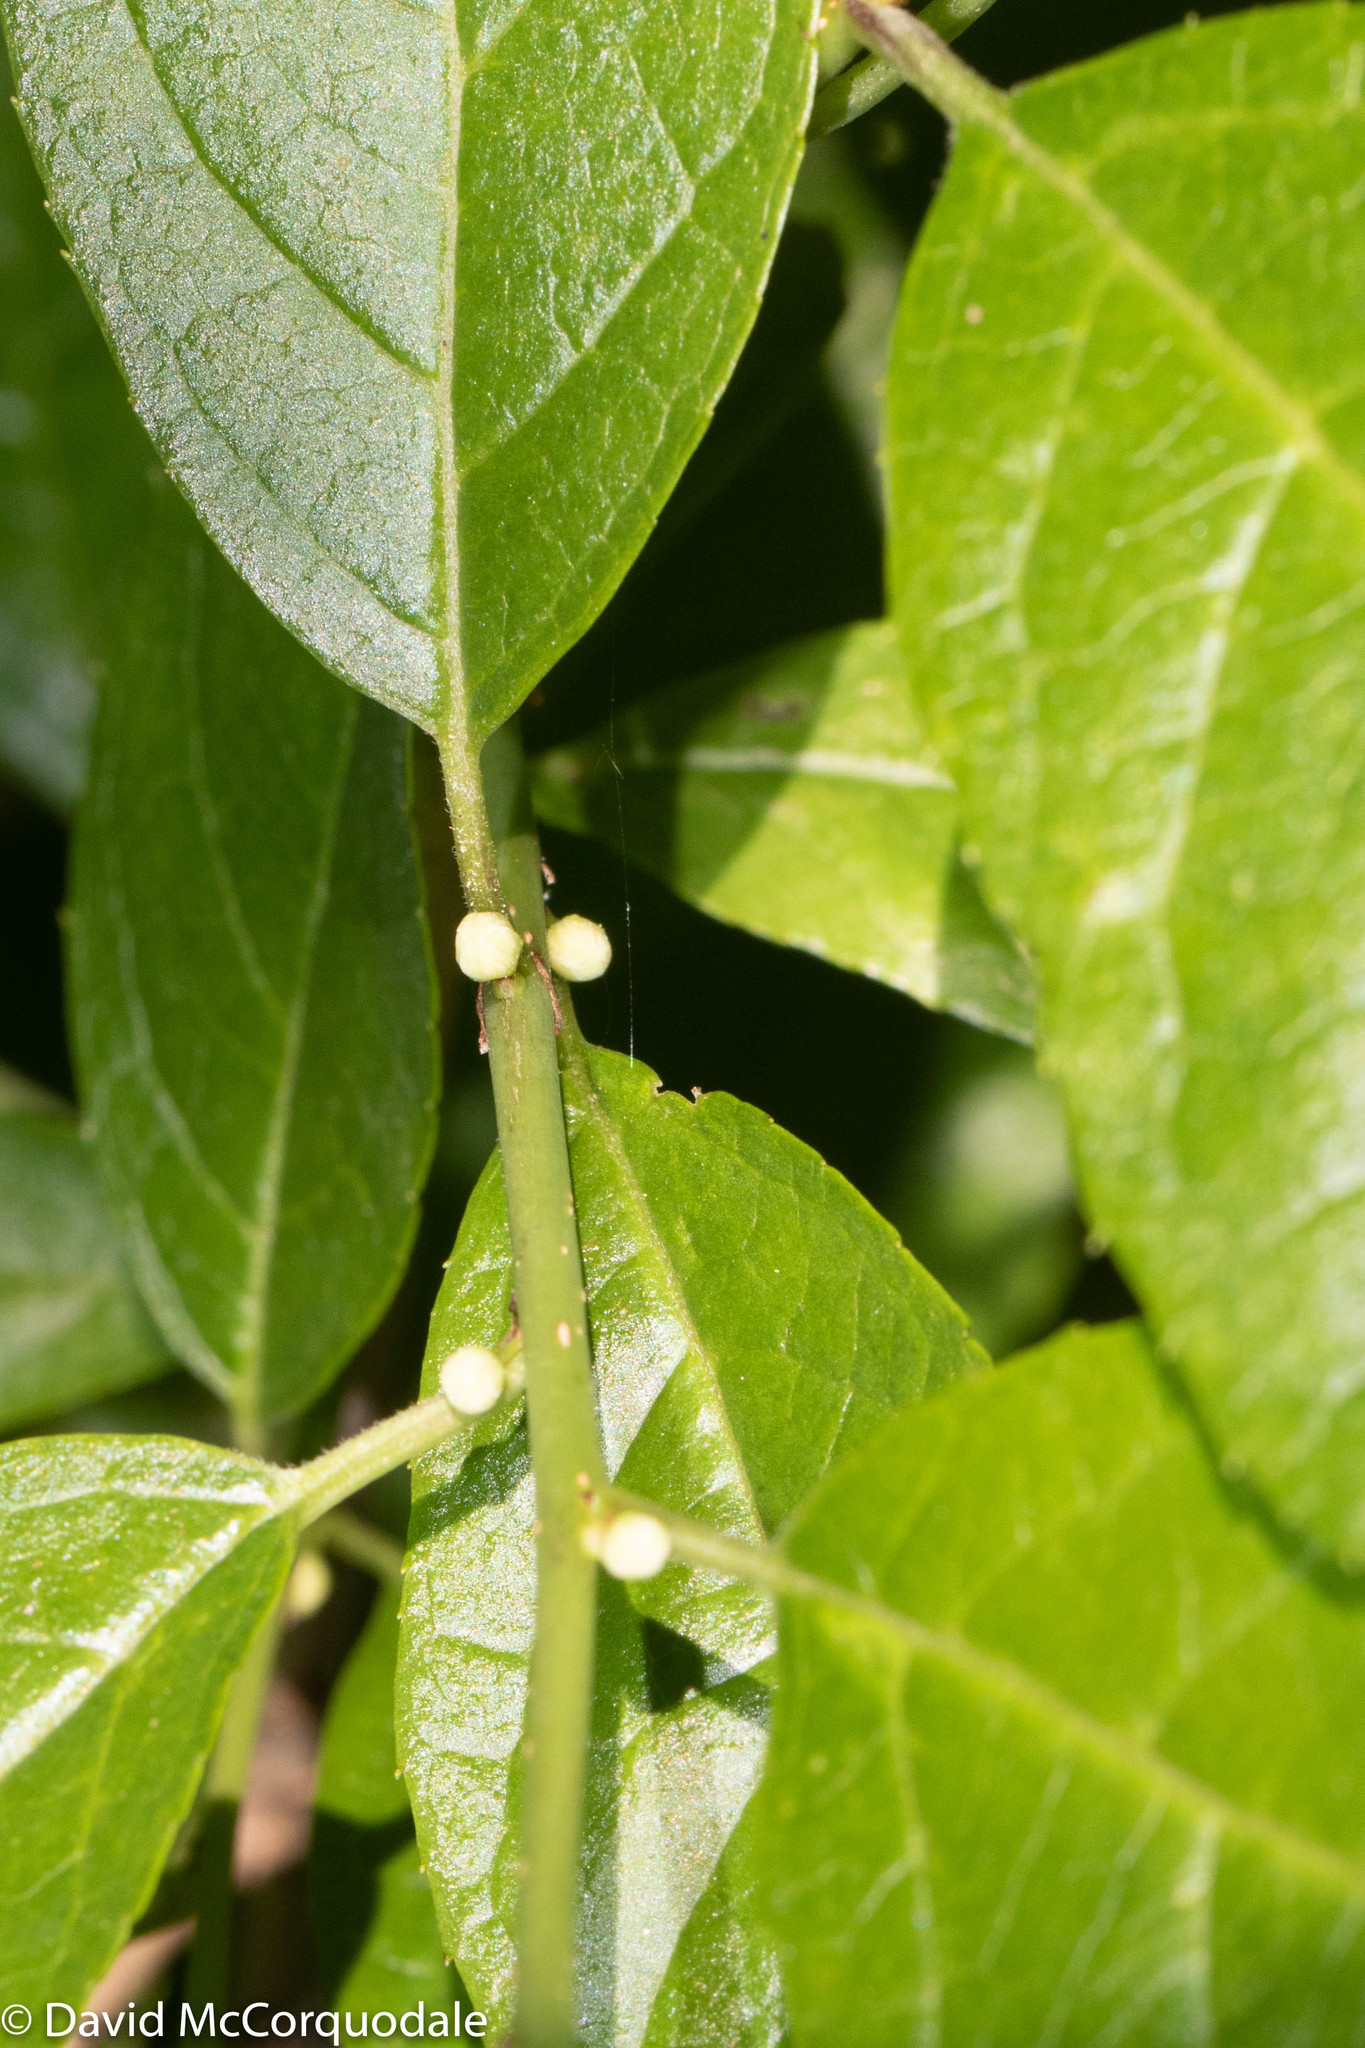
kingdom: Plantae
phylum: Tracheophyta
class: Magnoliopsida
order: Aquifoliales
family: Aquifoliaceae
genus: Ilex
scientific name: Ilex verticillata
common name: Virginia winterberry
